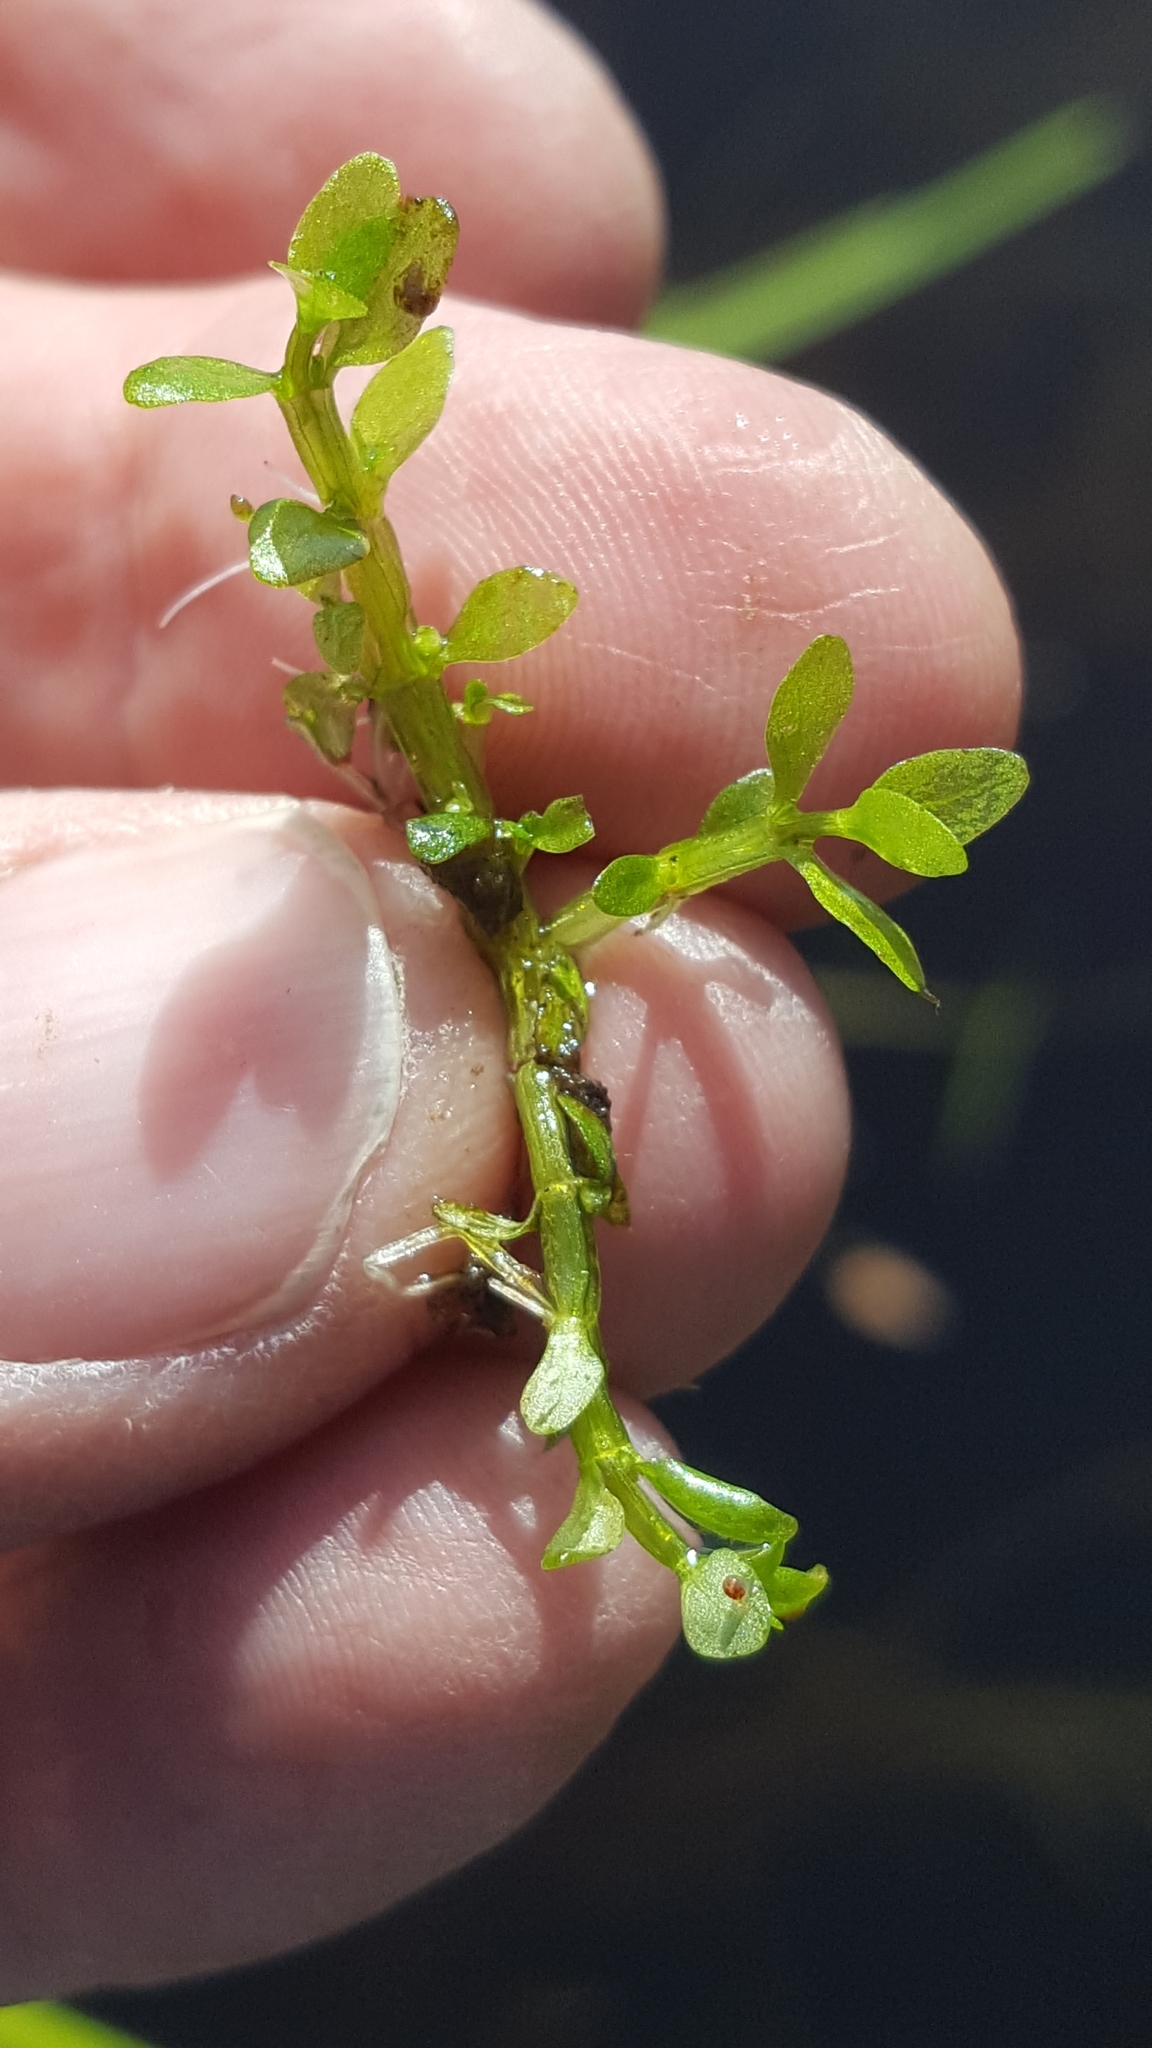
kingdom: Plantae
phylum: Tracheophyta
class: Magnoliopsida
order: Malpighiales
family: Elatinaceae
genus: Elatine
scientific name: Elatine minima
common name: Small waterwort
